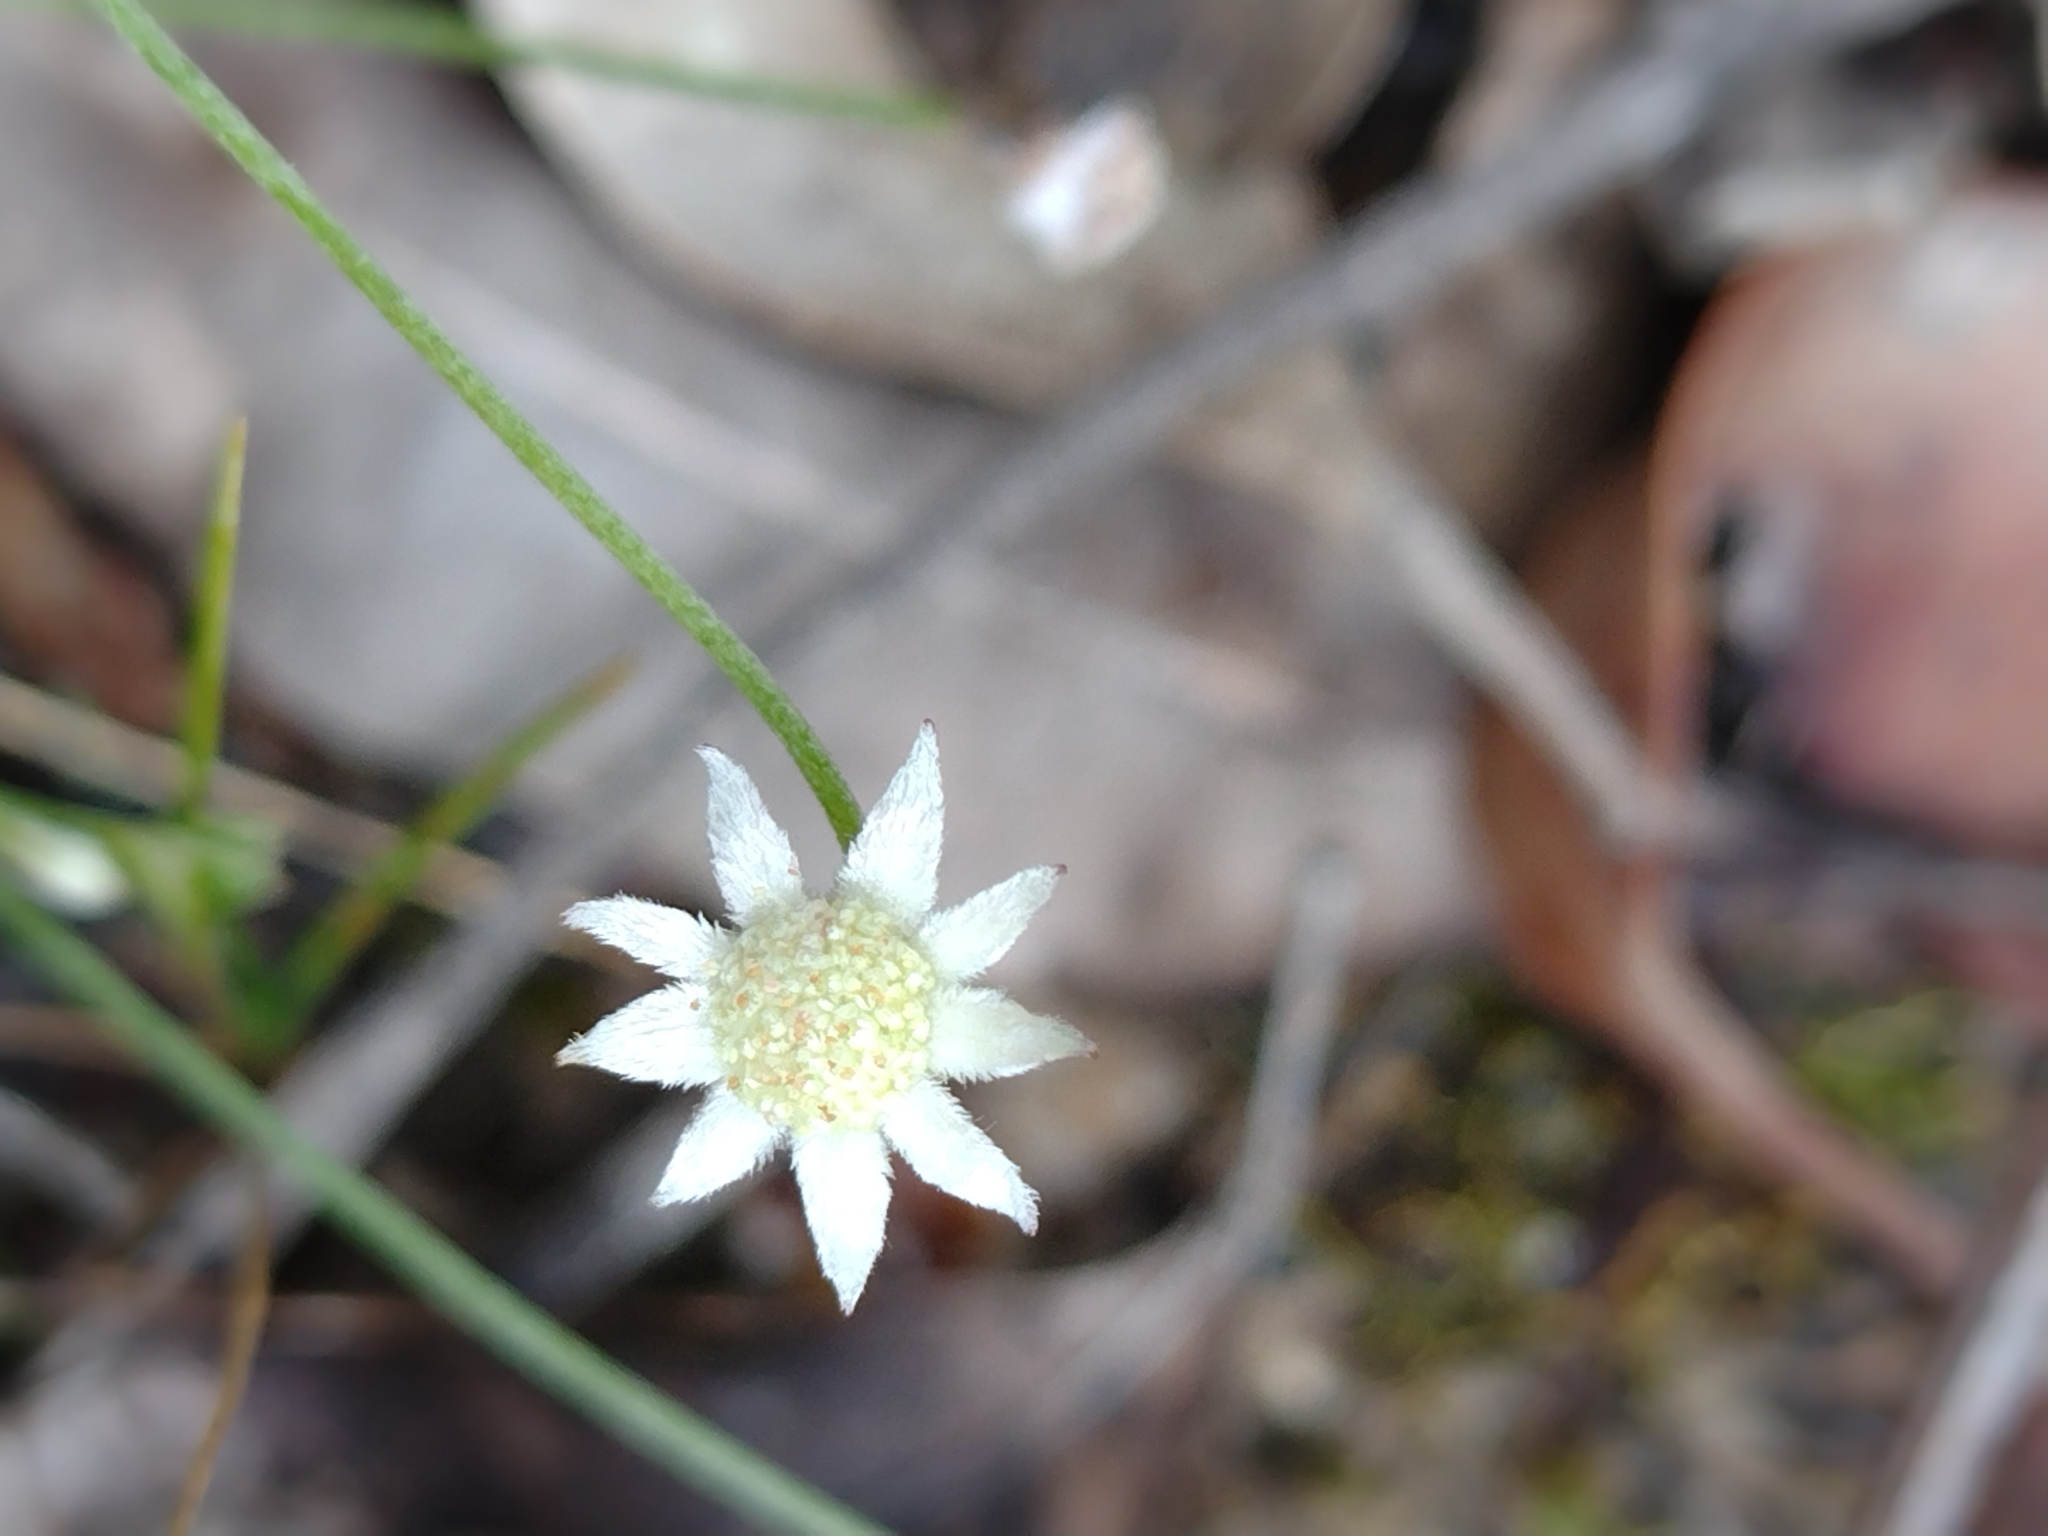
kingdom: Plantae
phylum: Tracheophyta
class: Magnoliopsida
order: Apiales
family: Apiaceae
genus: Actinotus
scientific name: Actinotus minor
